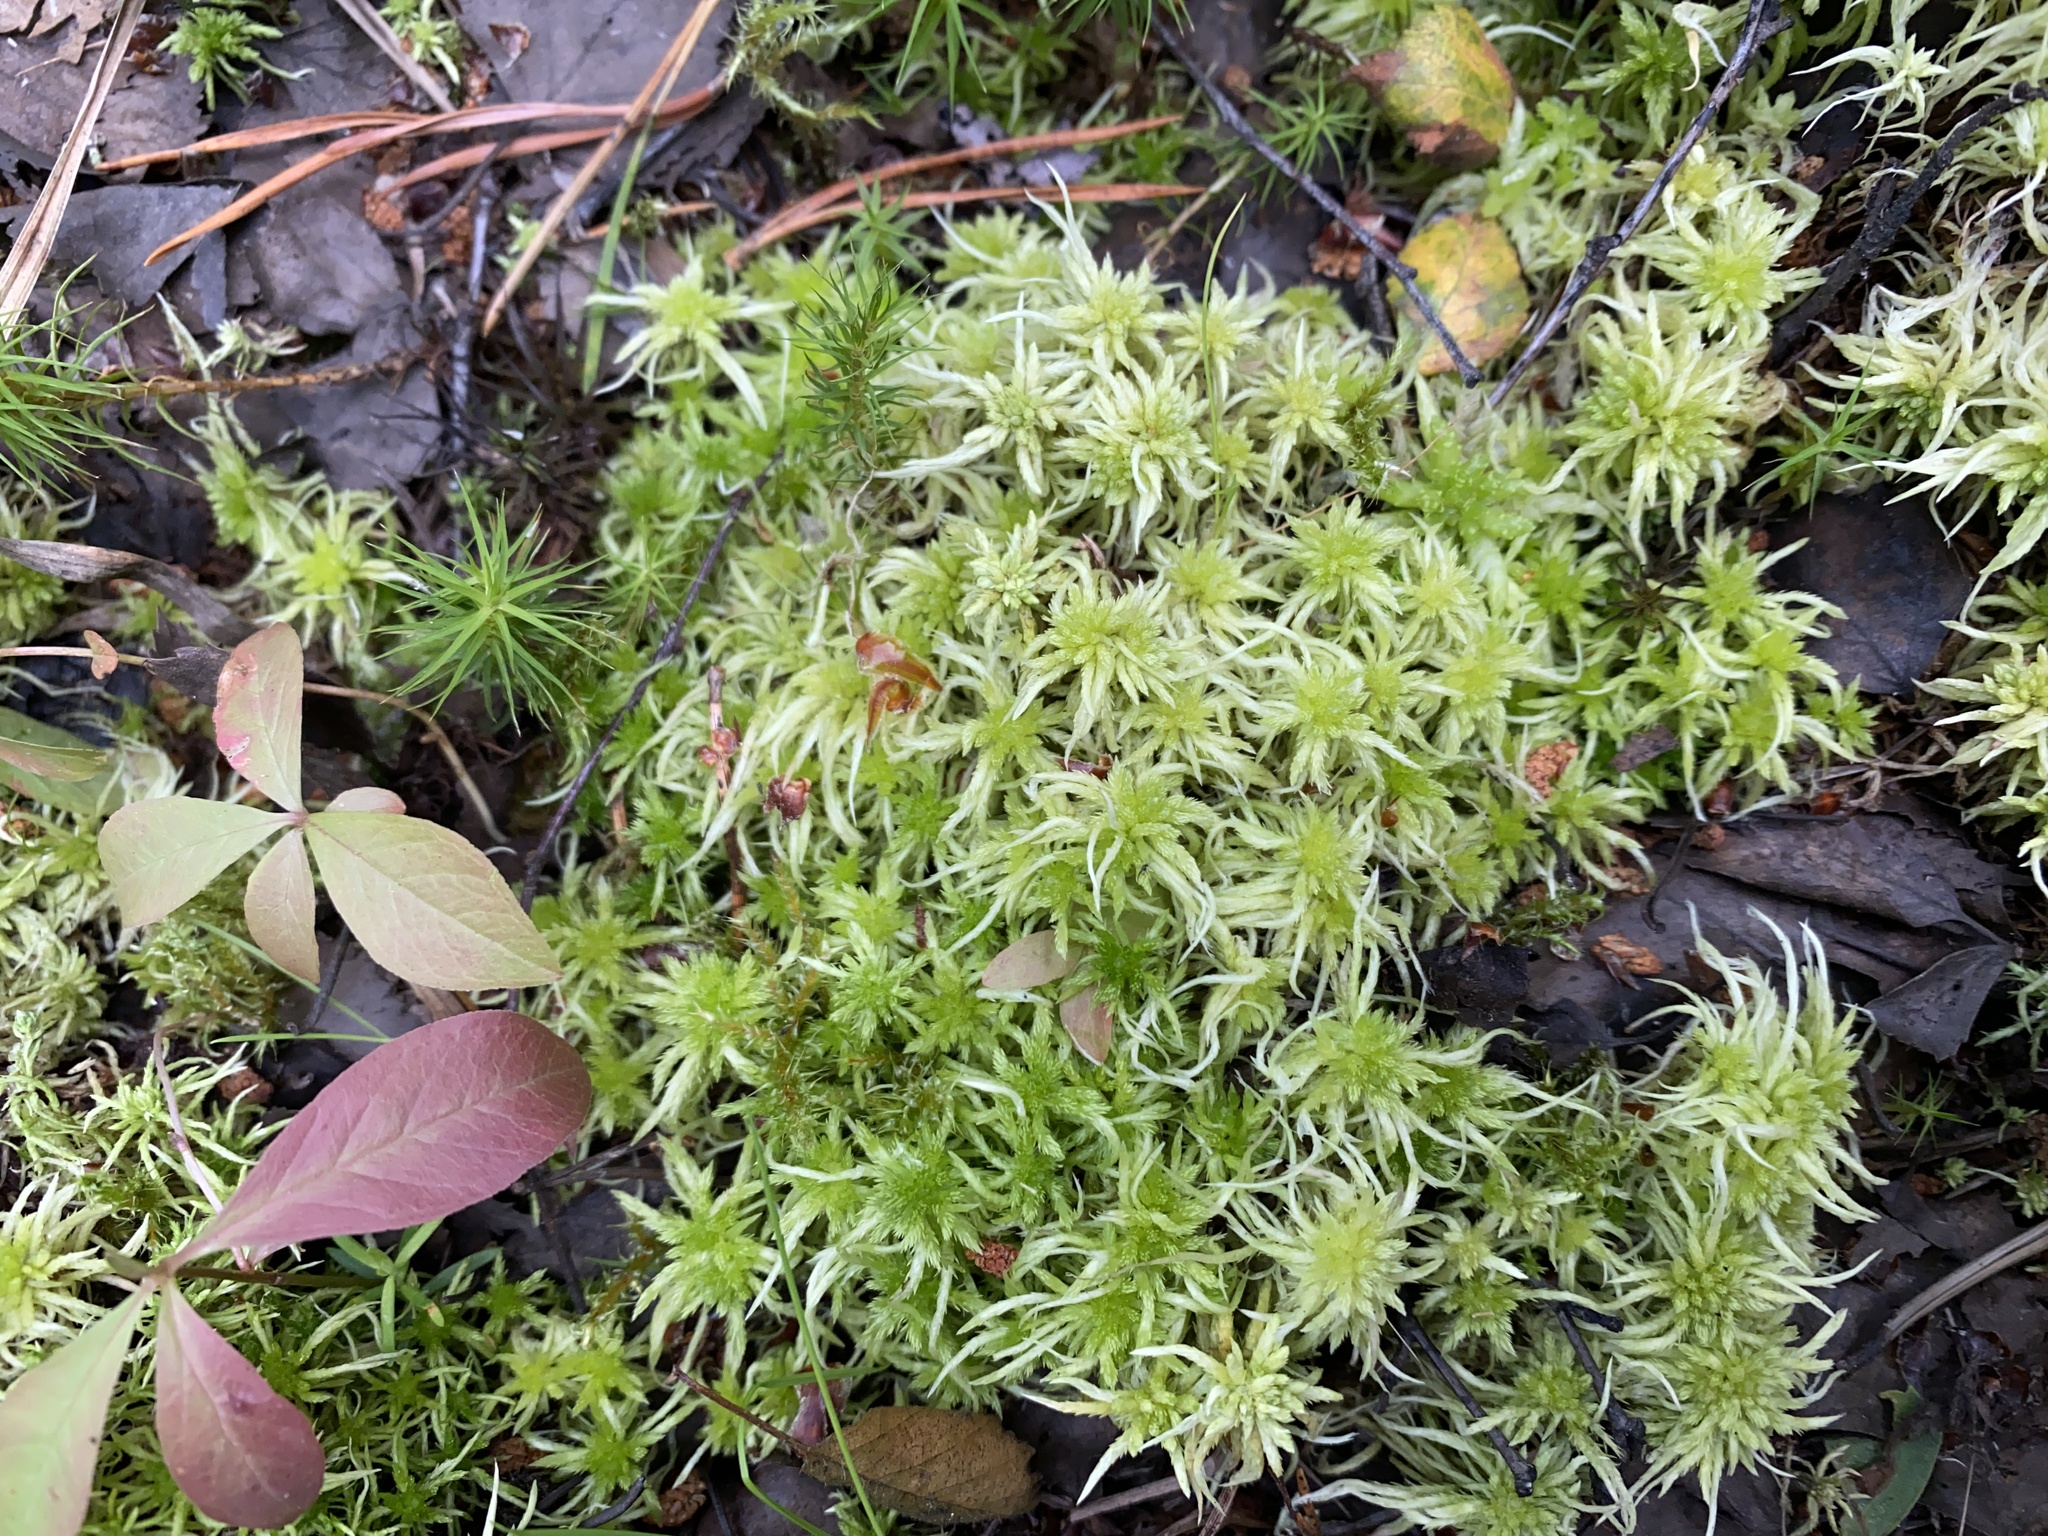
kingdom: Plantae
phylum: Bryophyta
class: Sphagnopsida
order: Sphagnales
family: Sphagnaceae
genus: Sphagnum
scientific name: Sphagnum fimbriatum
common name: Fringed peat moss
